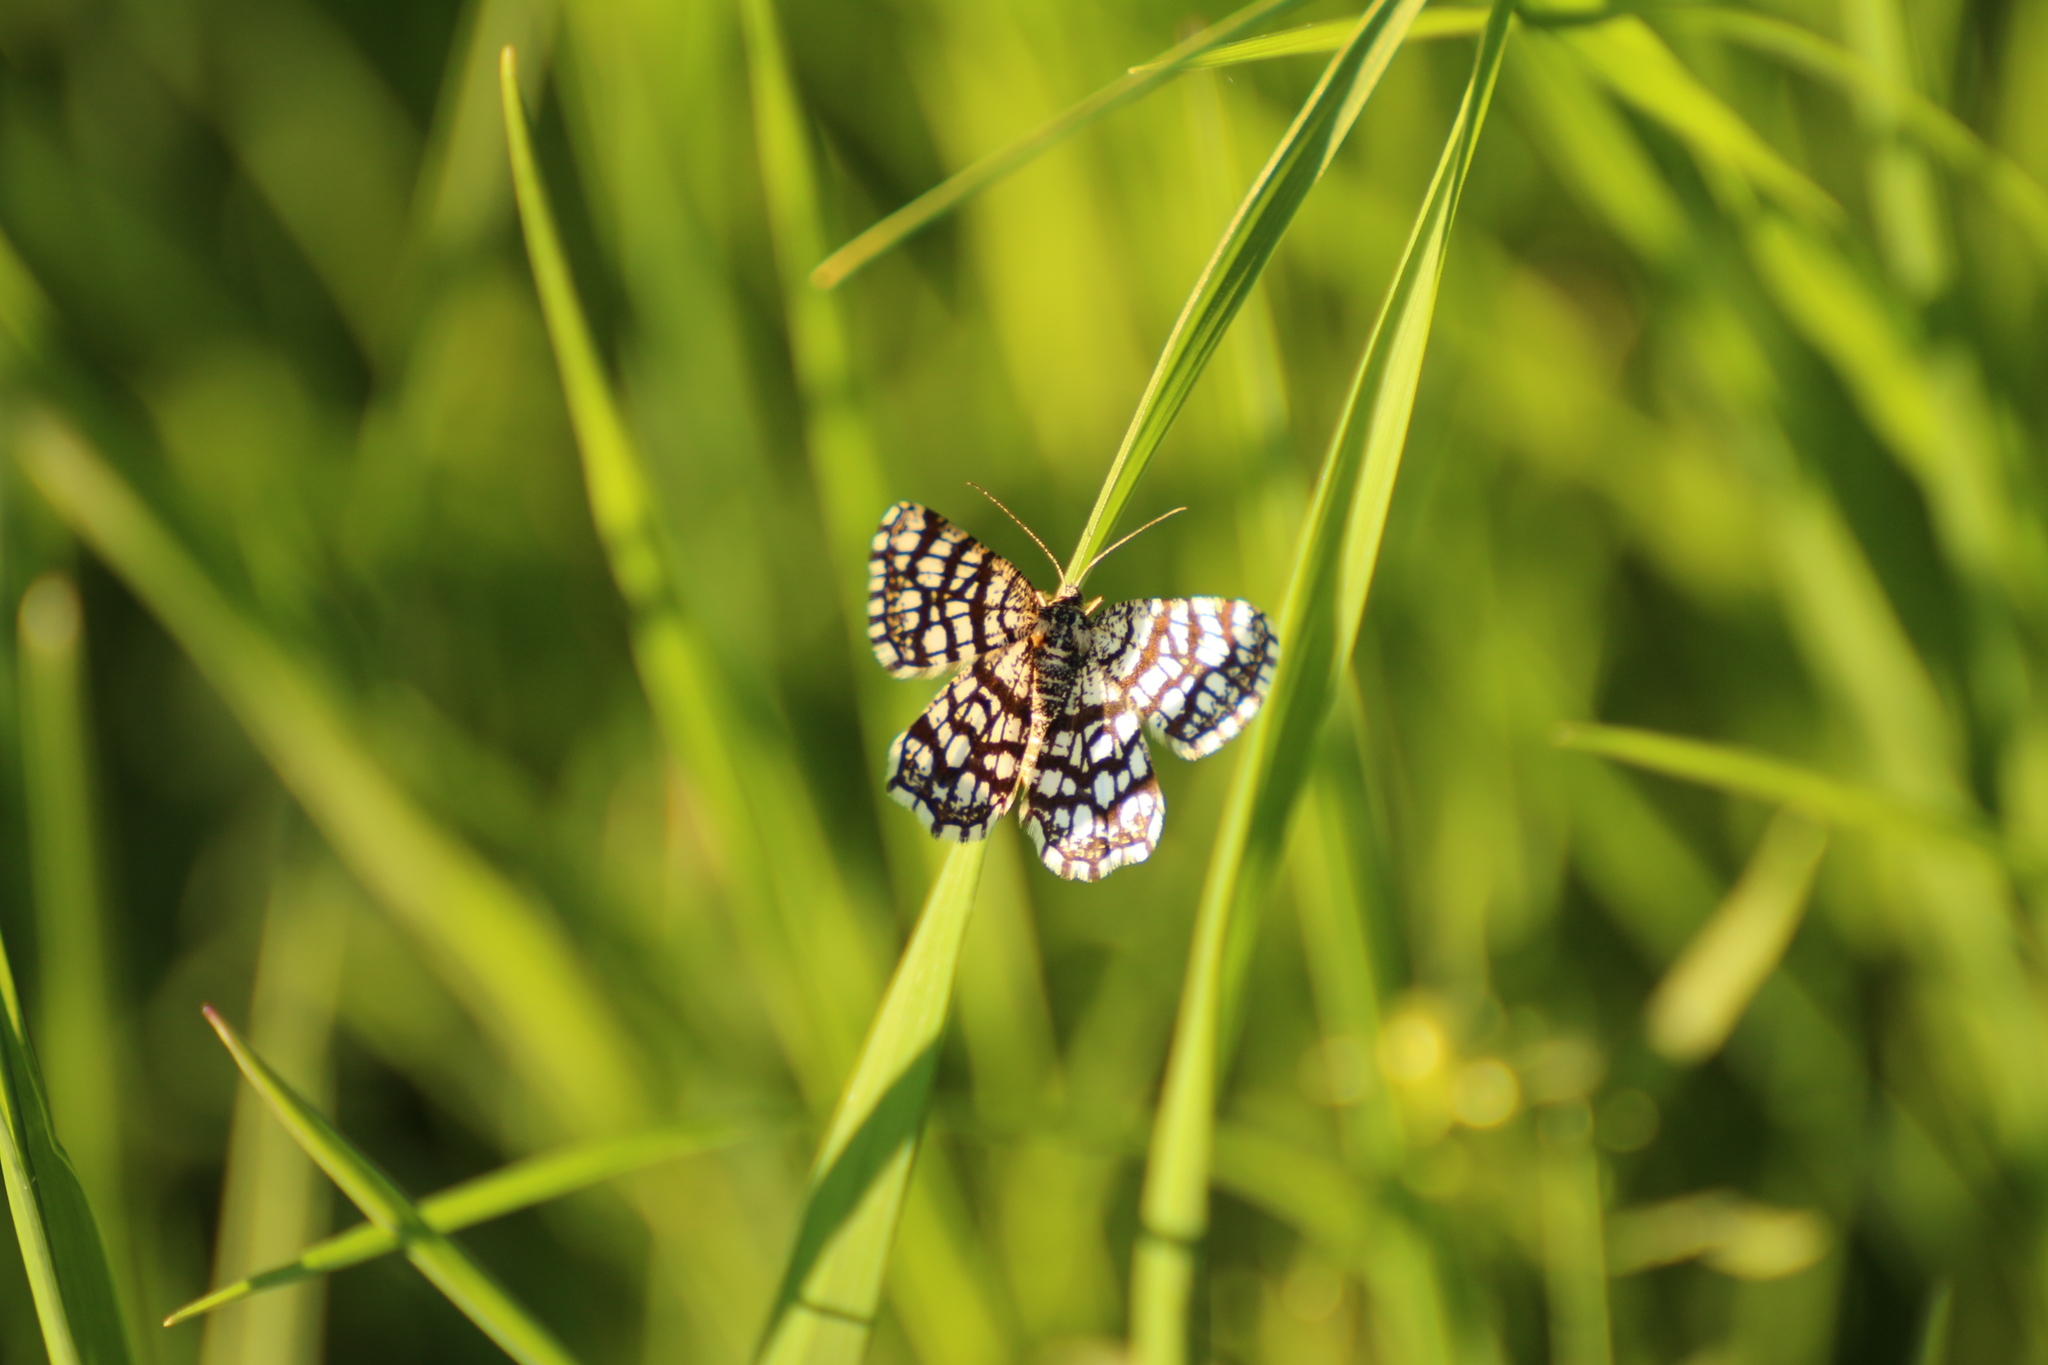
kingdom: Animalia
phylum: Arthropoda
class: Insecta
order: Lepidoptera
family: Geometridae
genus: Chiasmia
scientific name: Chiasmia clathrata
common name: Latticed heath
